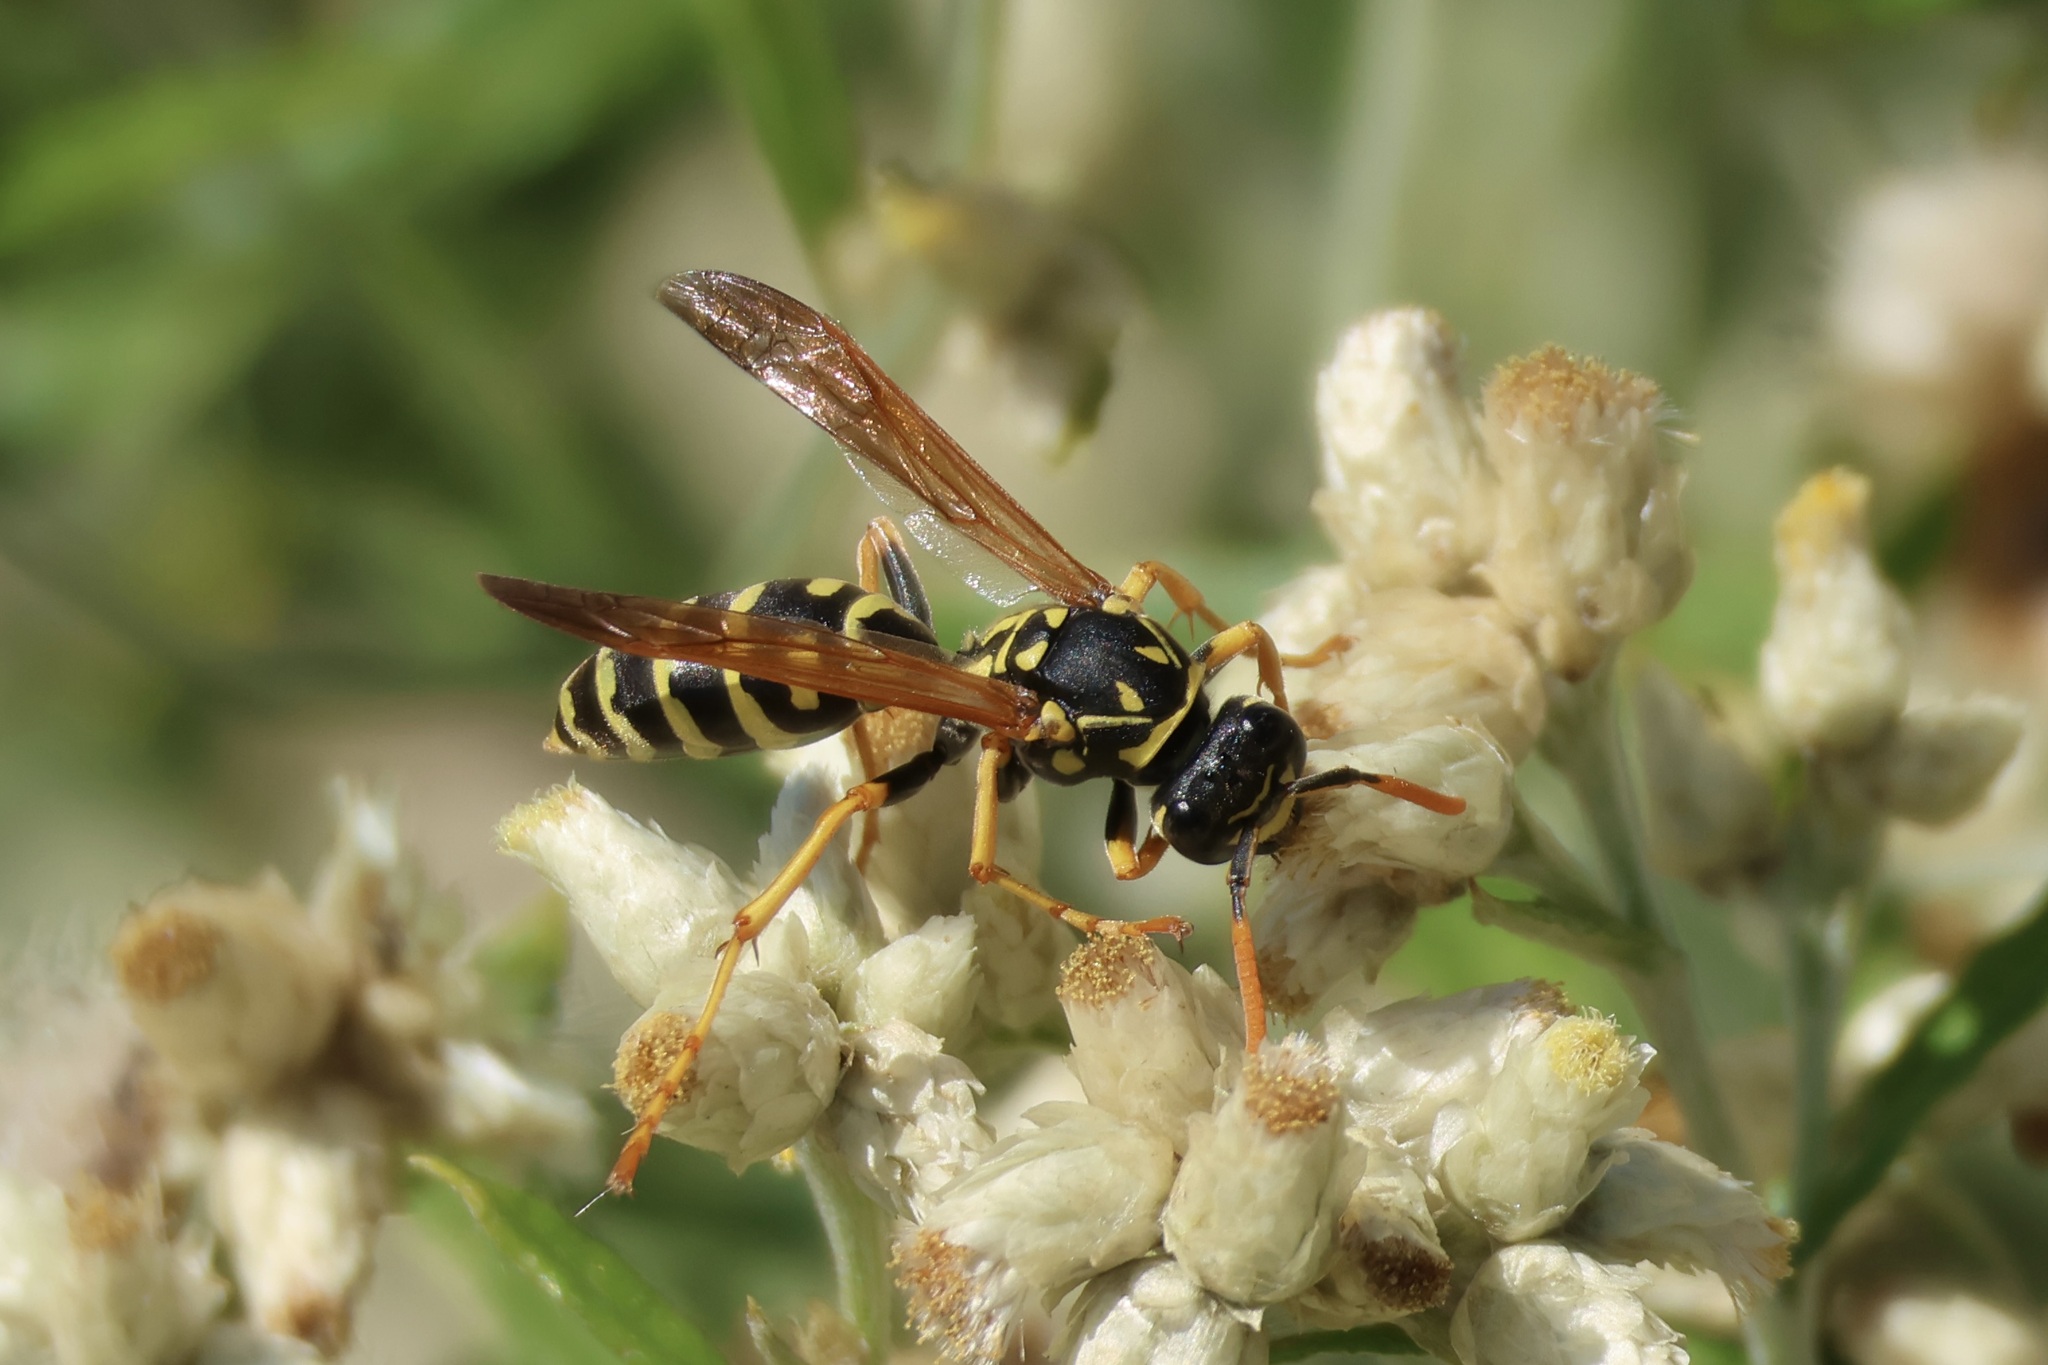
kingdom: Animalia
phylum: Arthropoda
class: Insecta
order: Hymenoptera
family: Eumenidae
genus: Polistes
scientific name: Polistes dominula
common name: Paper wasp
